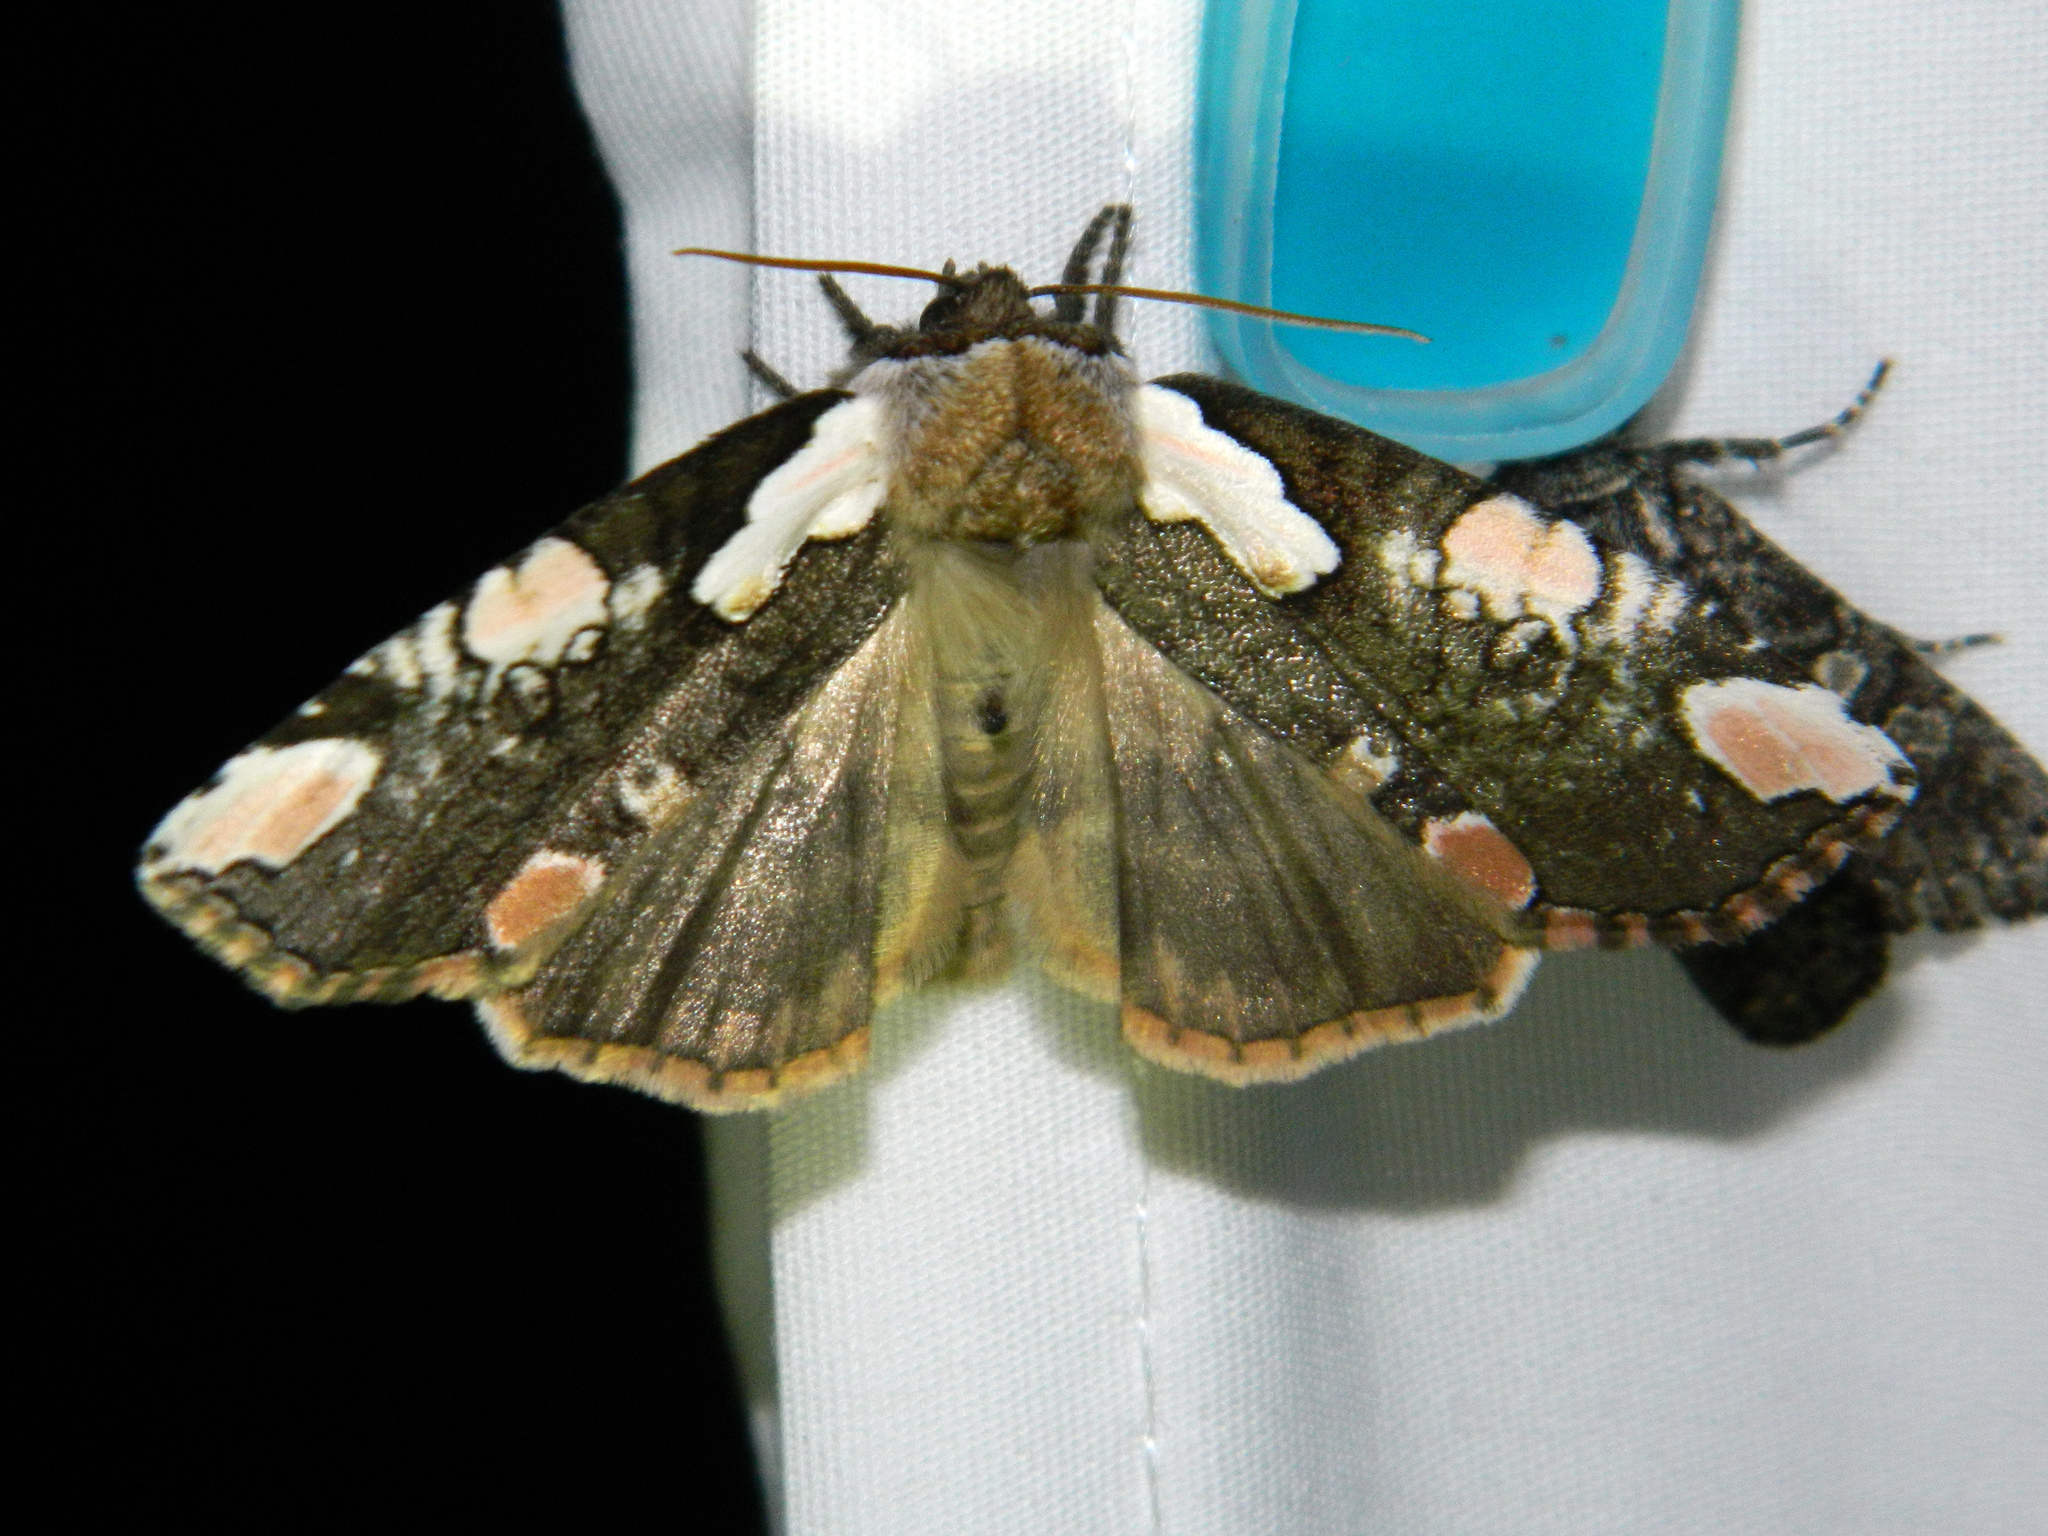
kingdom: Animalia
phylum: Arthropoda
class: Insecta
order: Lepidoptera
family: Drepanidae
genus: Euthyatira
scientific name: Euthyatira pudens
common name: Dogwood thyatirid moth
